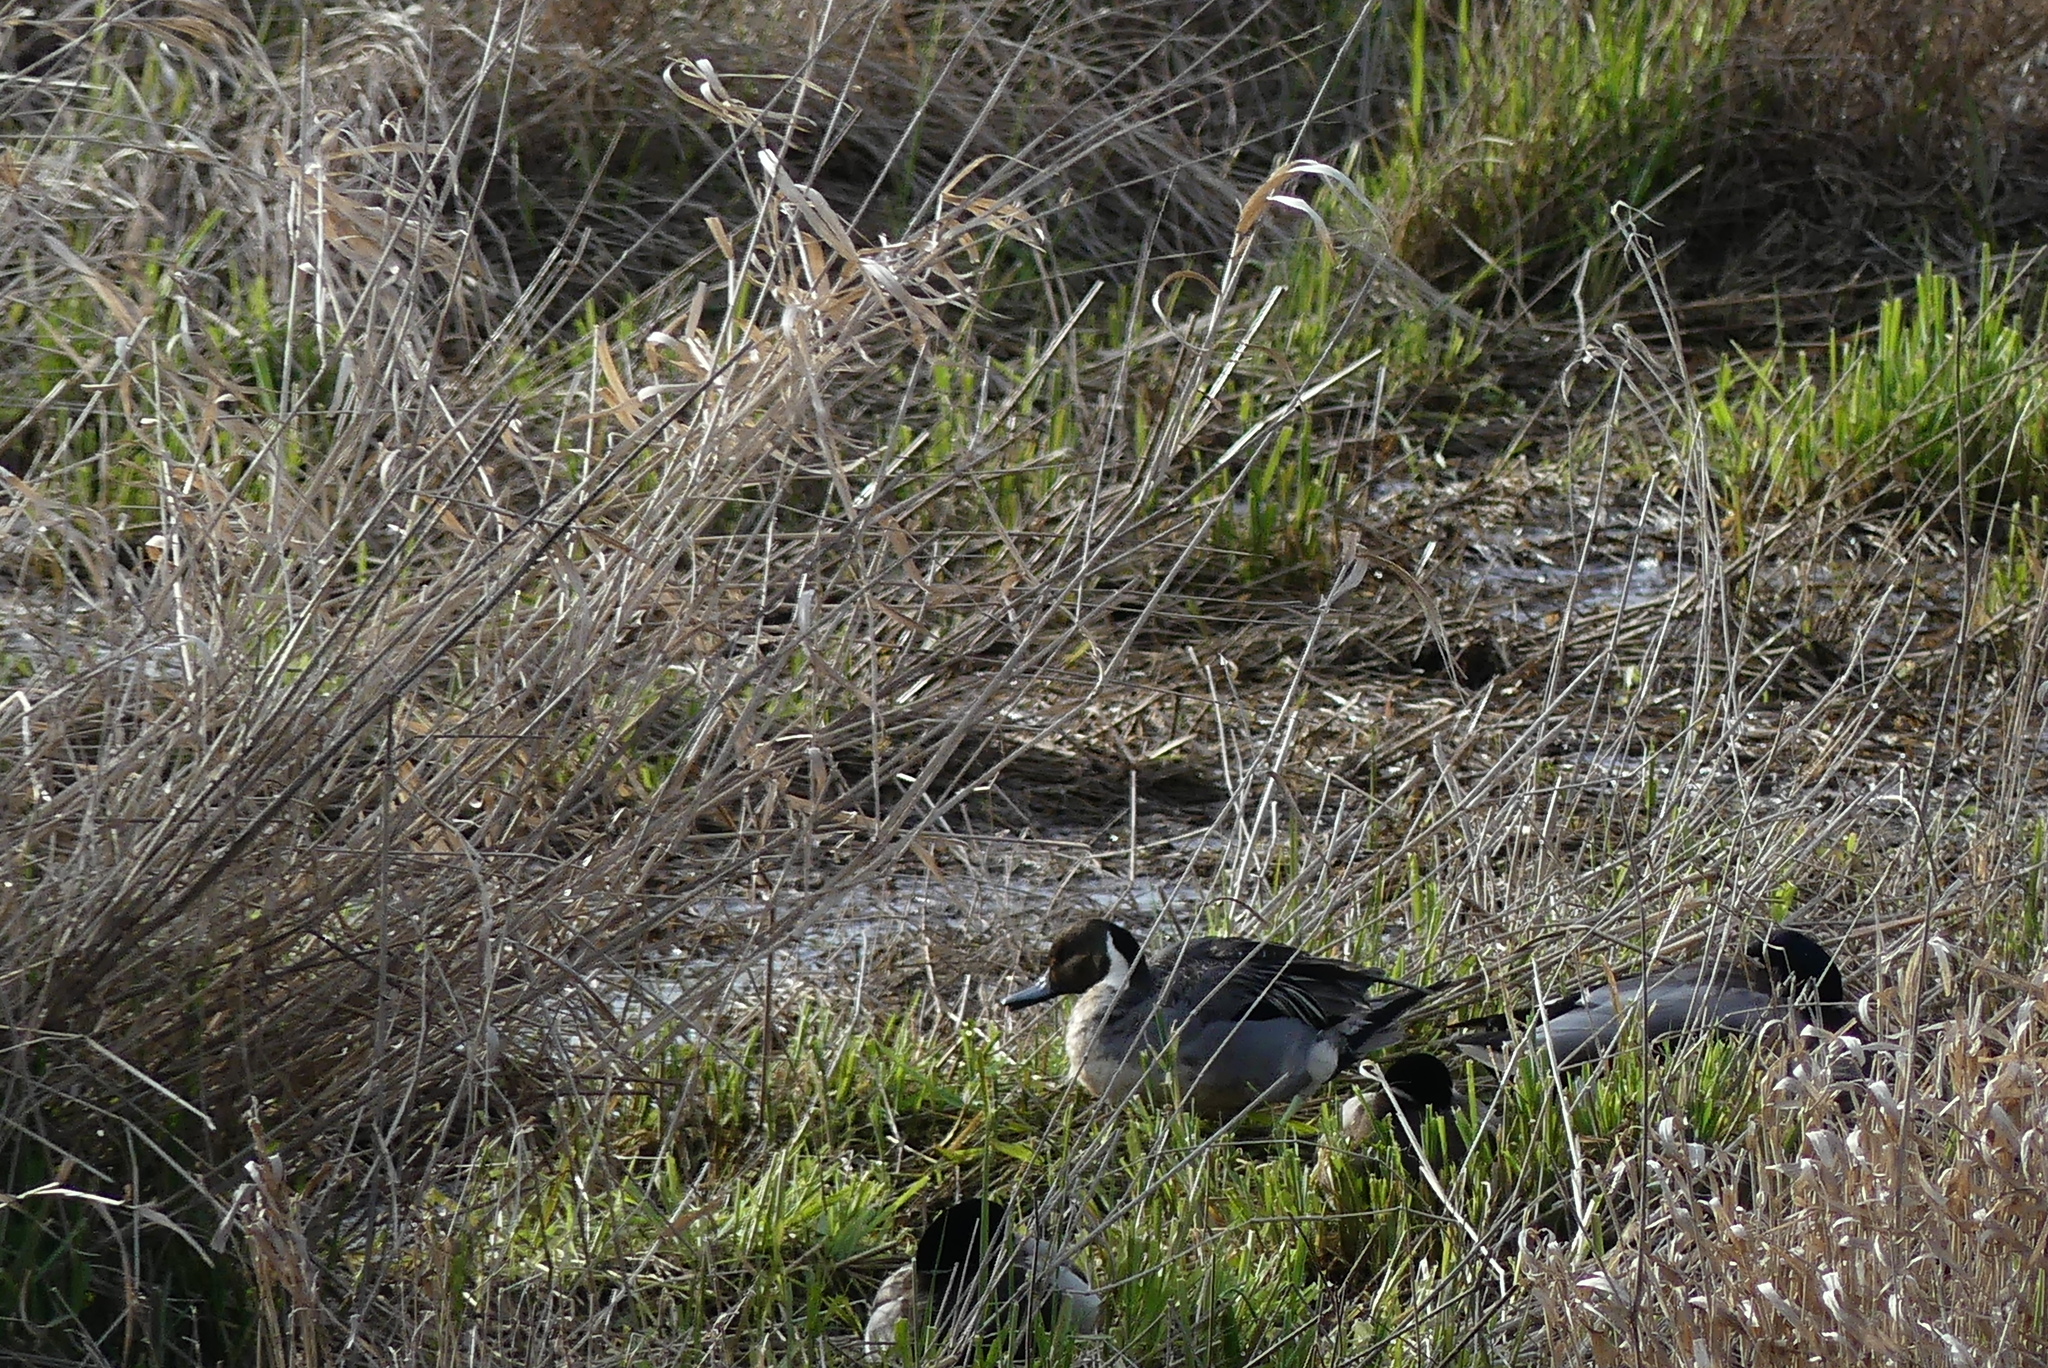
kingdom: Animalia
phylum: Chordata
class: Aves
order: Anseriformes
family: Anatidae
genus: Anas
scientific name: Anas acuta
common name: Northern pintail
